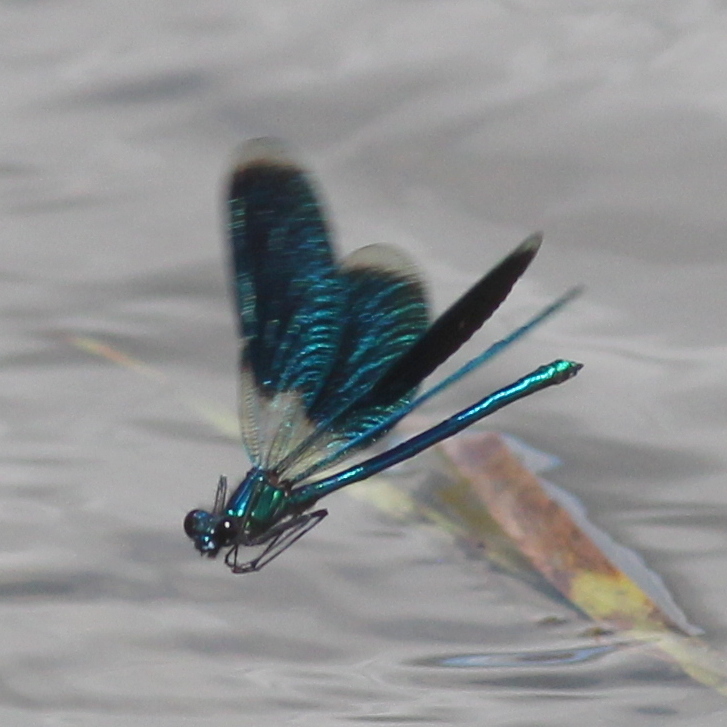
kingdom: Animalia
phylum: Arthropoda
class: Insecta
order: Odonata
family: Calopterygidae
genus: Calopteryx
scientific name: Calopteryx splendens
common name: Banded demoiselle
